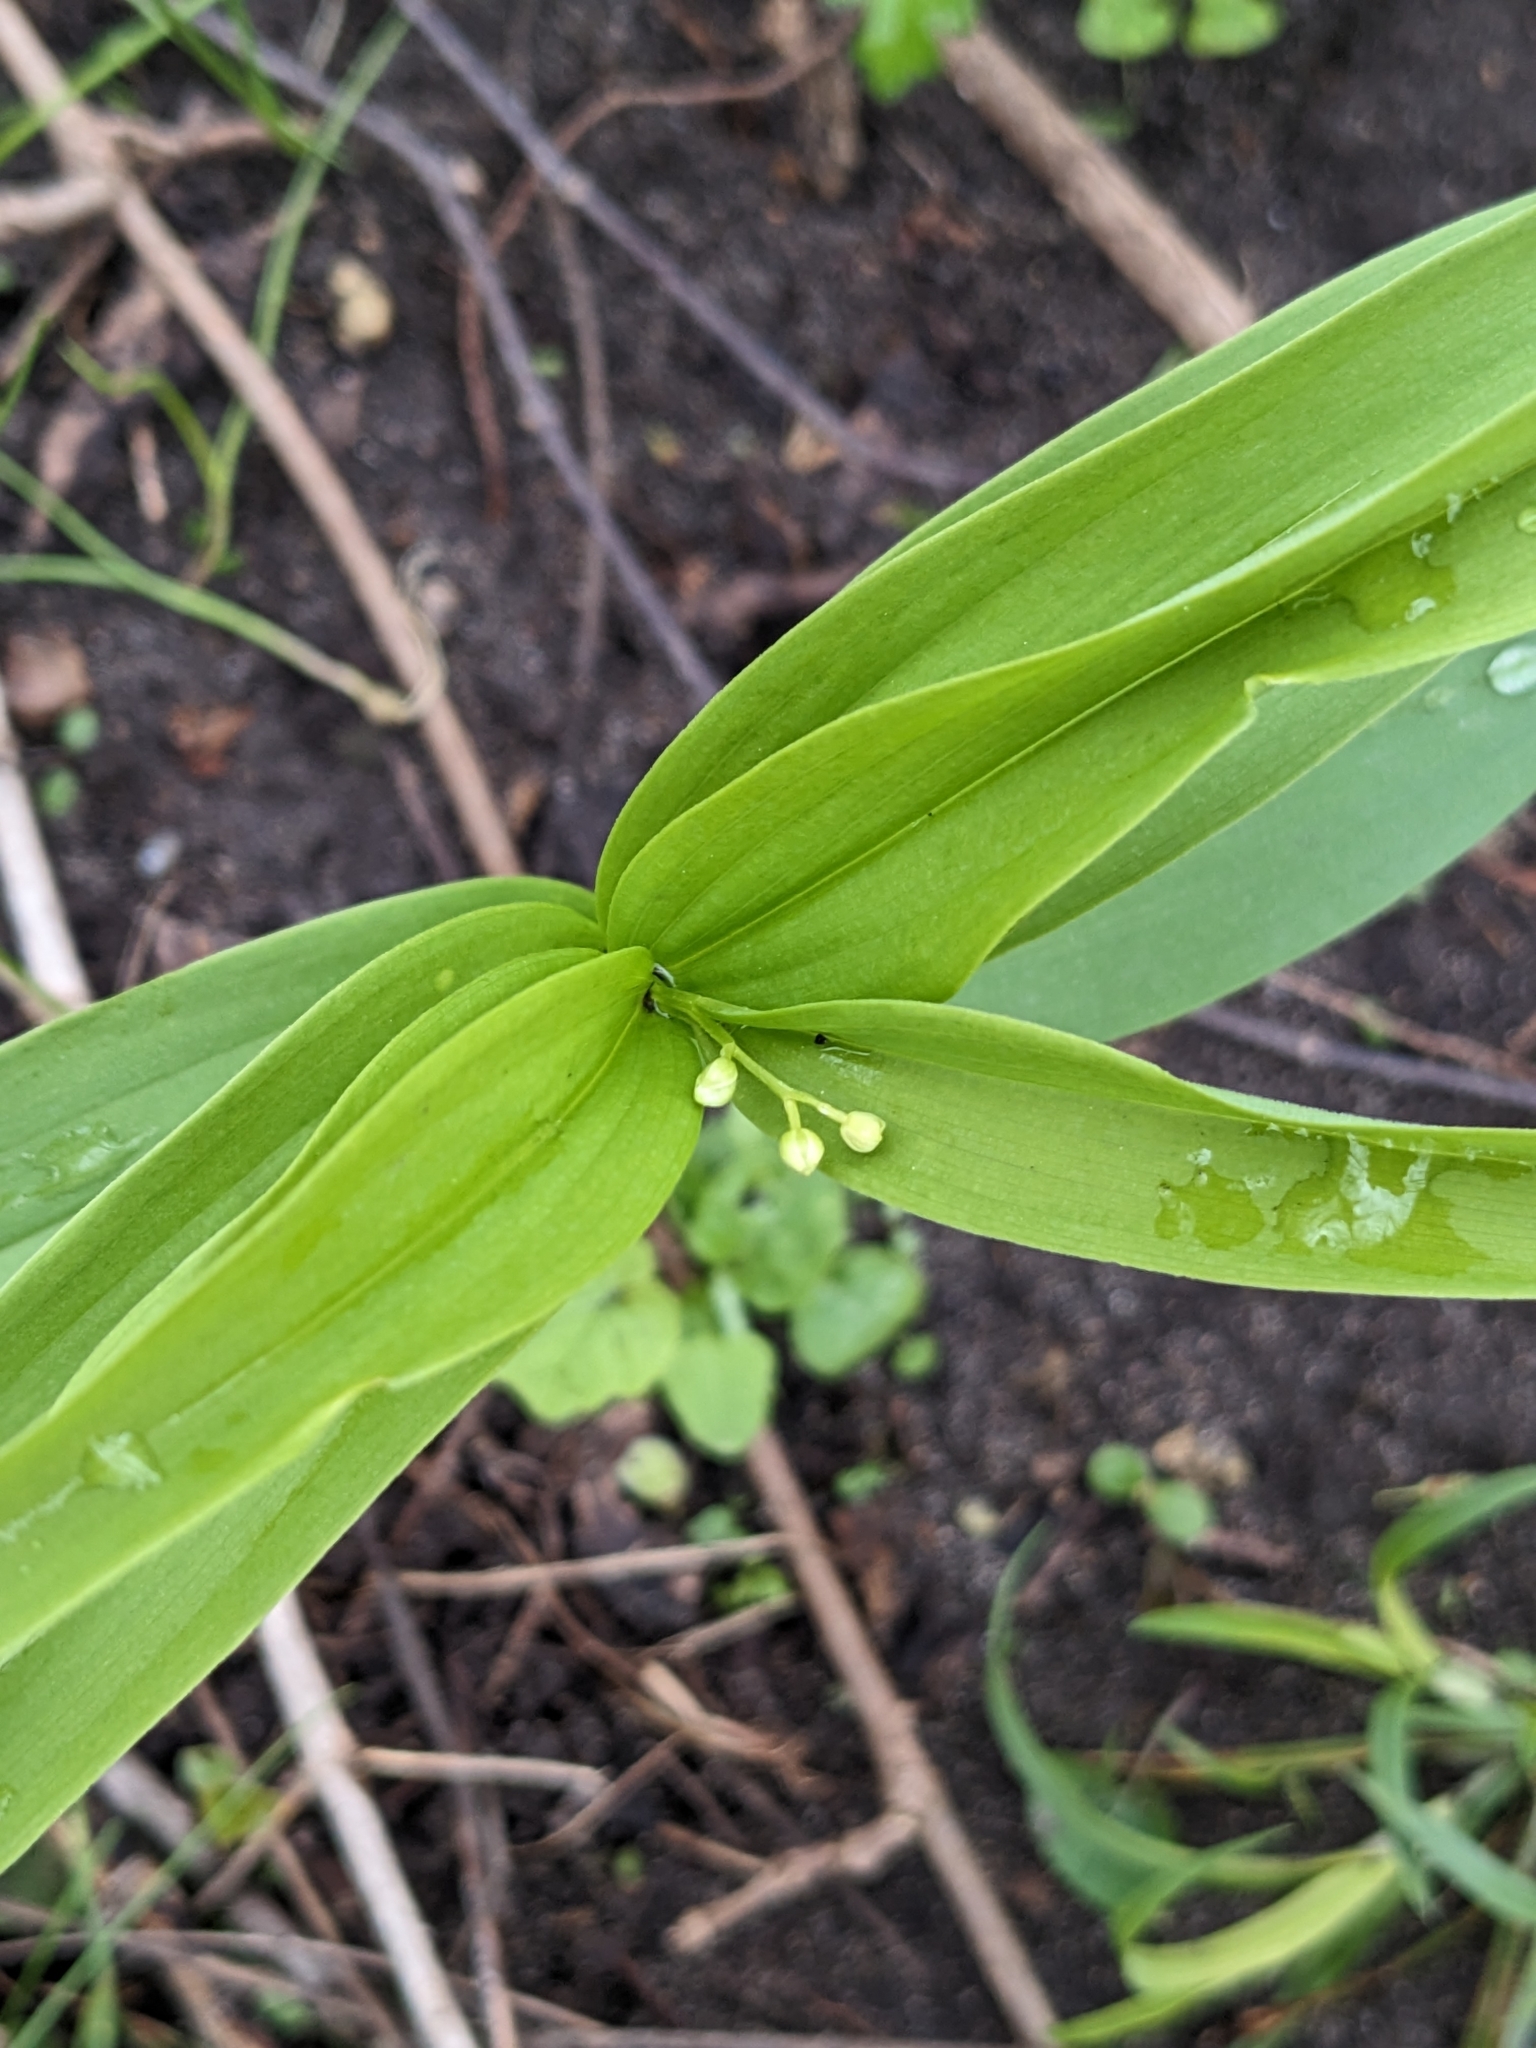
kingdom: Plantae
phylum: Tracheophyta
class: Liliopsida
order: Asparagales
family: Asparagaceae
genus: Maianthemum
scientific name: Maianthemum stellatum
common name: Little false solomon's seal
